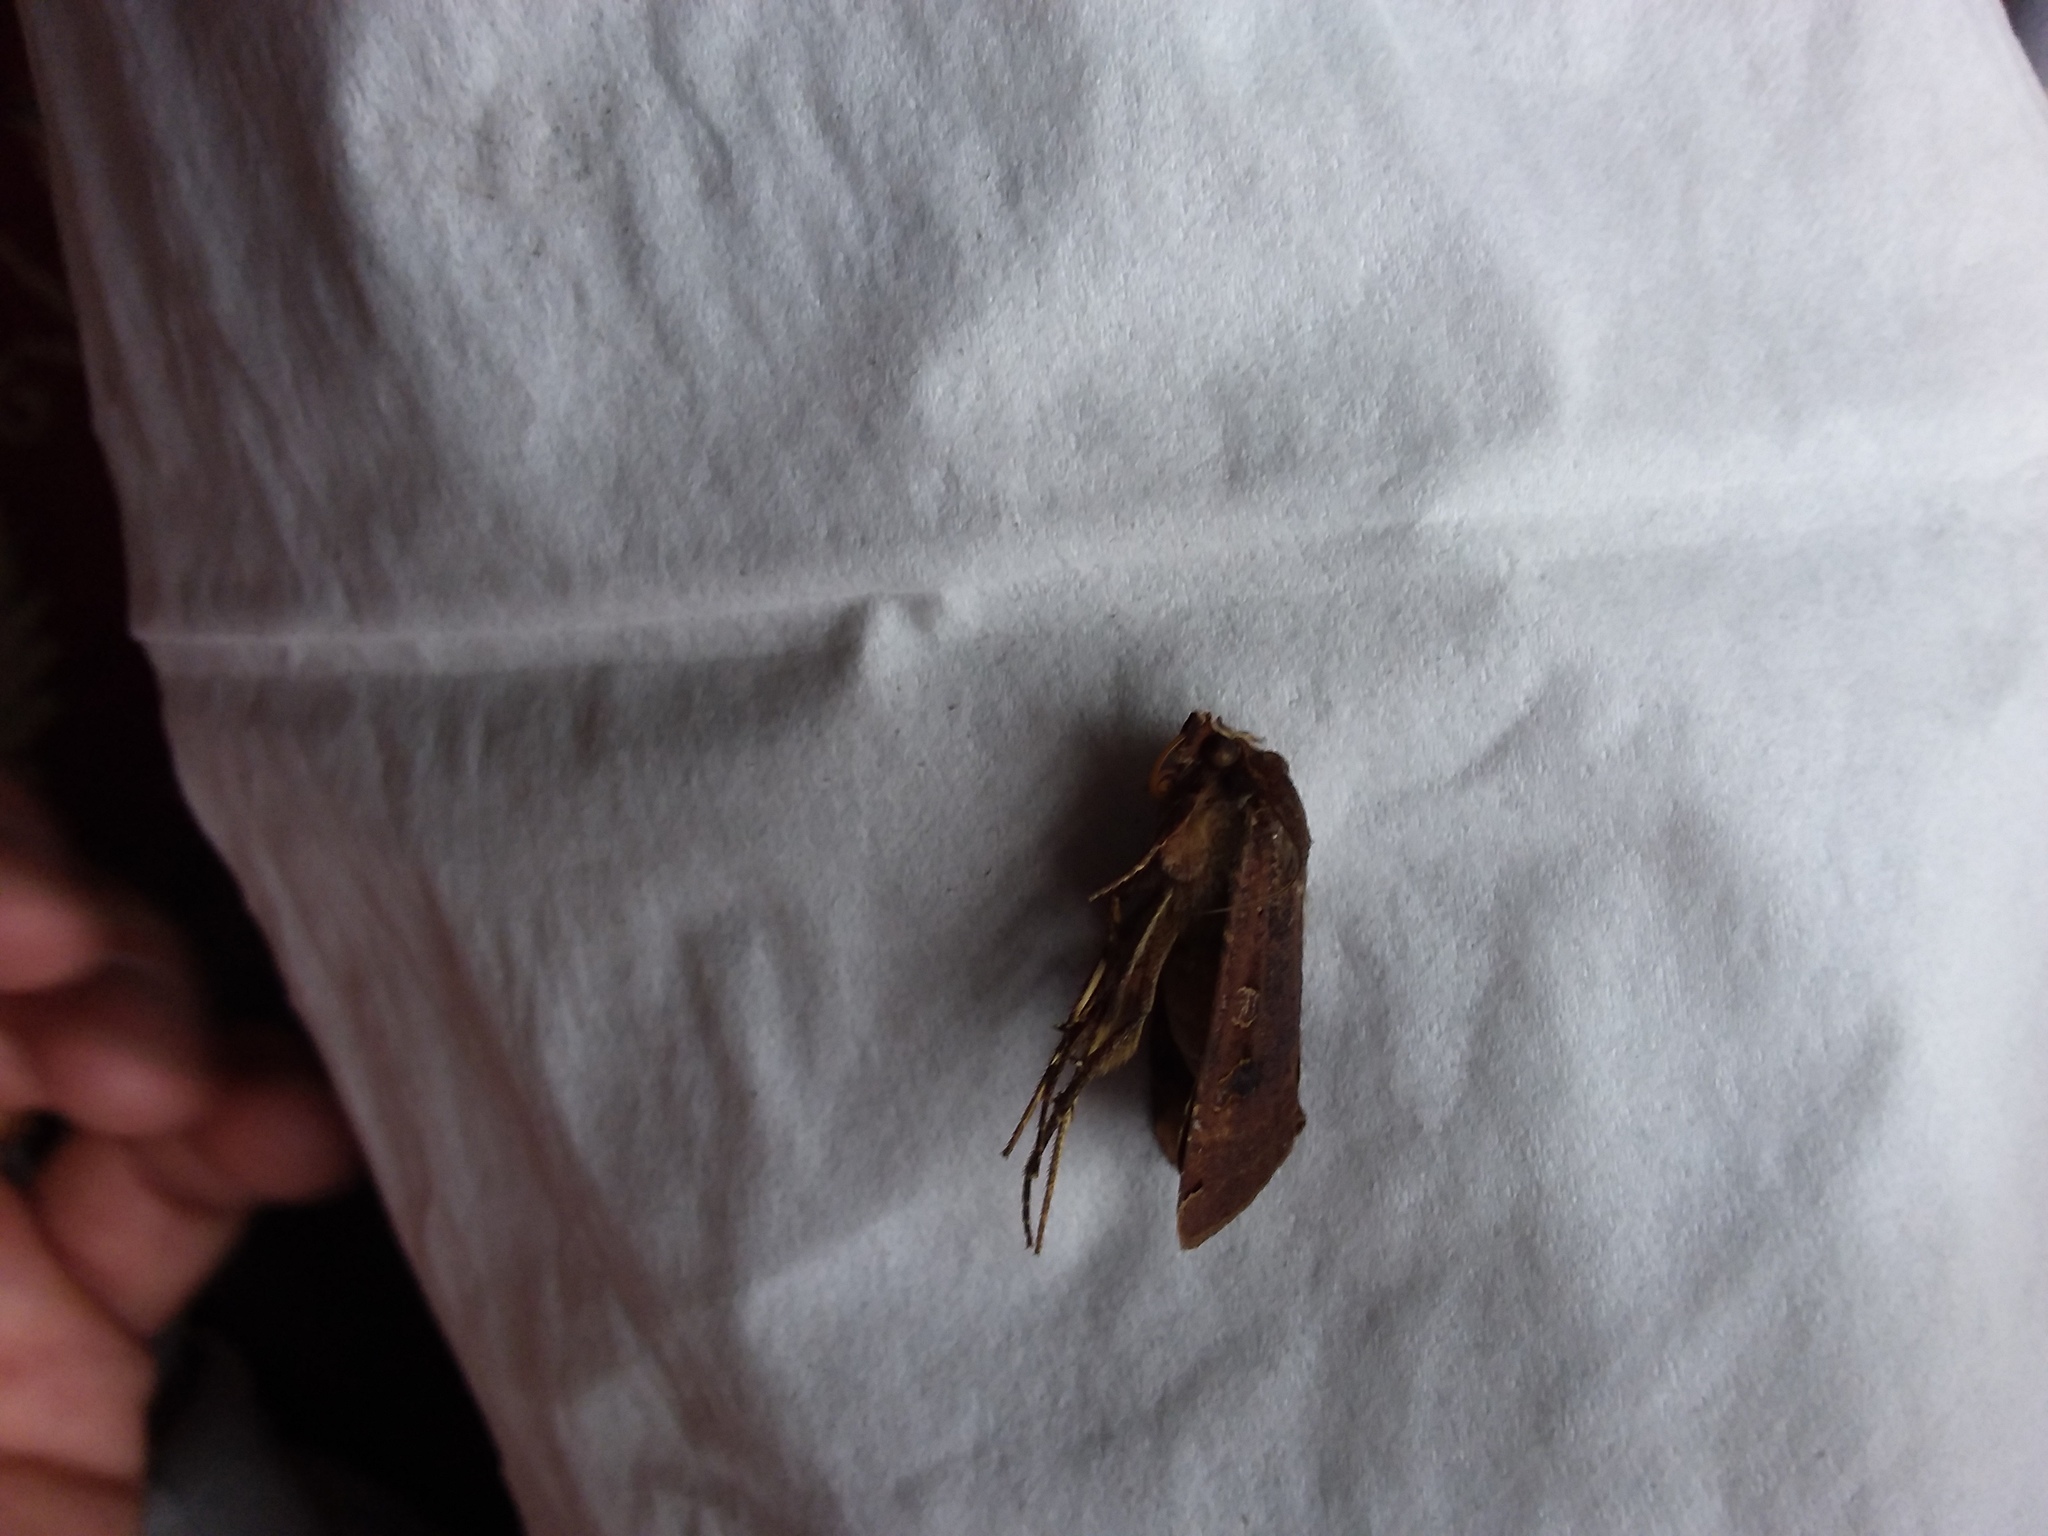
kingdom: Animalia
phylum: Arthropoda
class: Insecta
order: Lepidoptera
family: Noctuidae
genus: Xestia
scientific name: Xestia xanthographa
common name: Square-spot rustic
